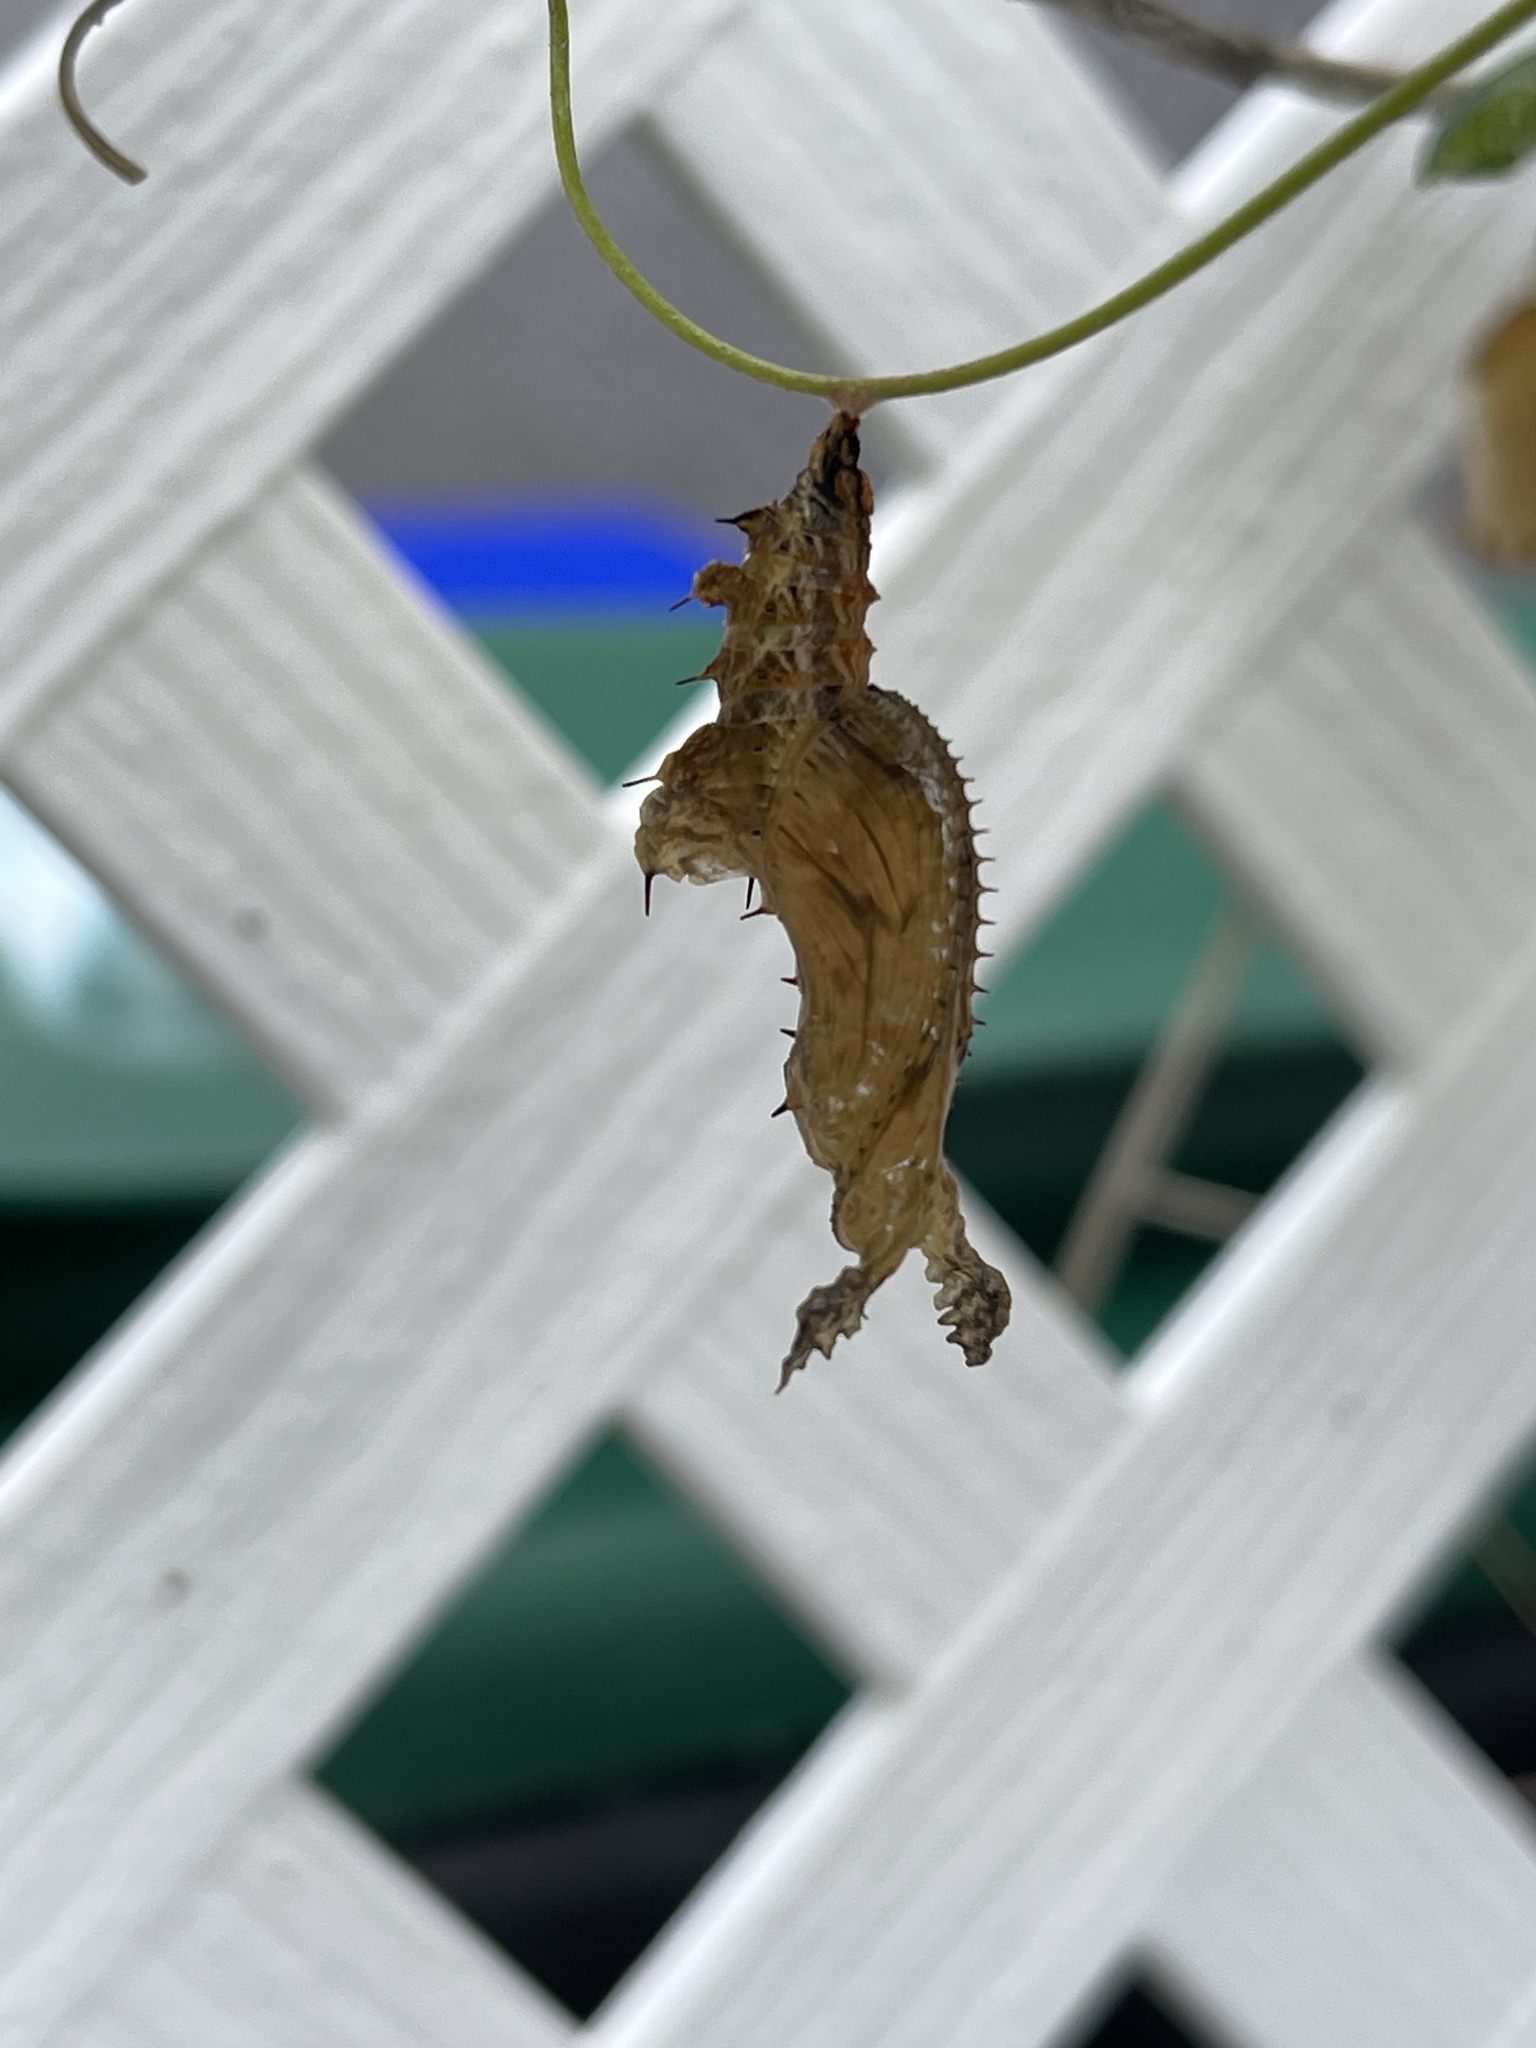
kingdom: Animalia
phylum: Arthropoda
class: Insecta
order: Lepidoptera
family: Nymphalidae
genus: Heliconius
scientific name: Heliconius charithonia
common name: Zebra long wing
